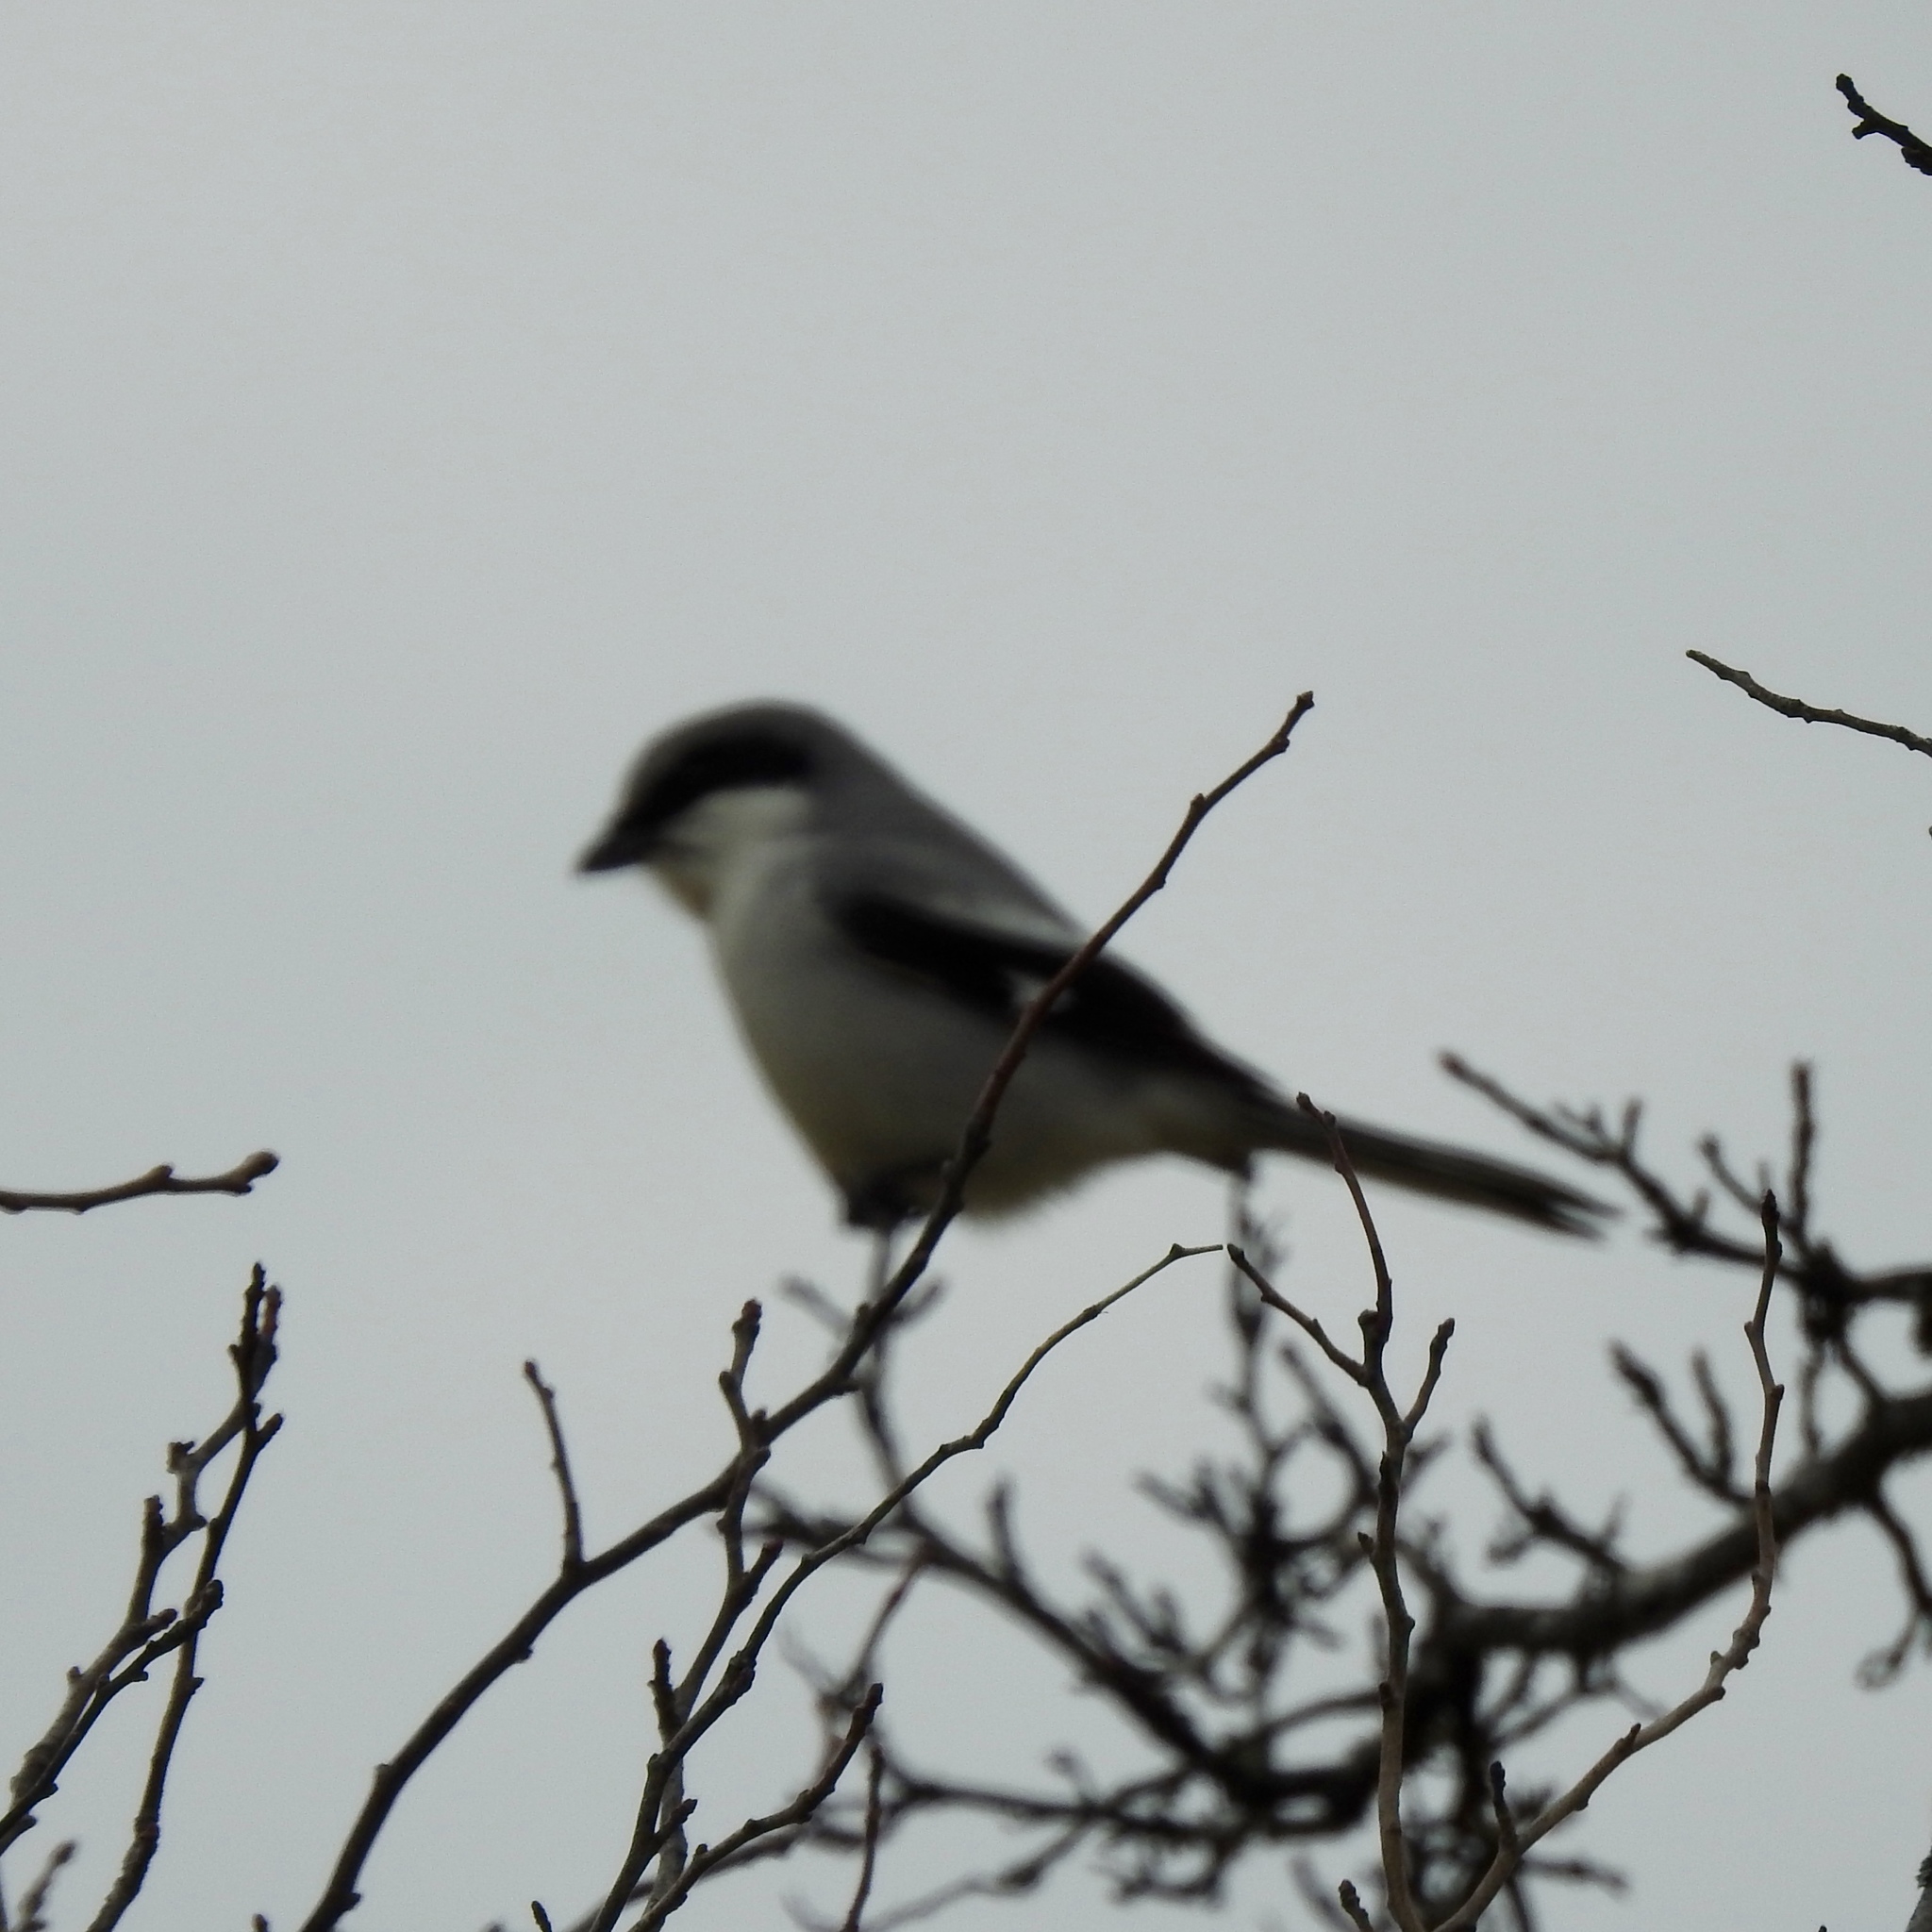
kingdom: Animalia
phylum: Chordata
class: Aves
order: Passeriformes
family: Laniidae
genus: Lanius
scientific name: Lanius ludovicianus
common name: Loggerhead shrike
